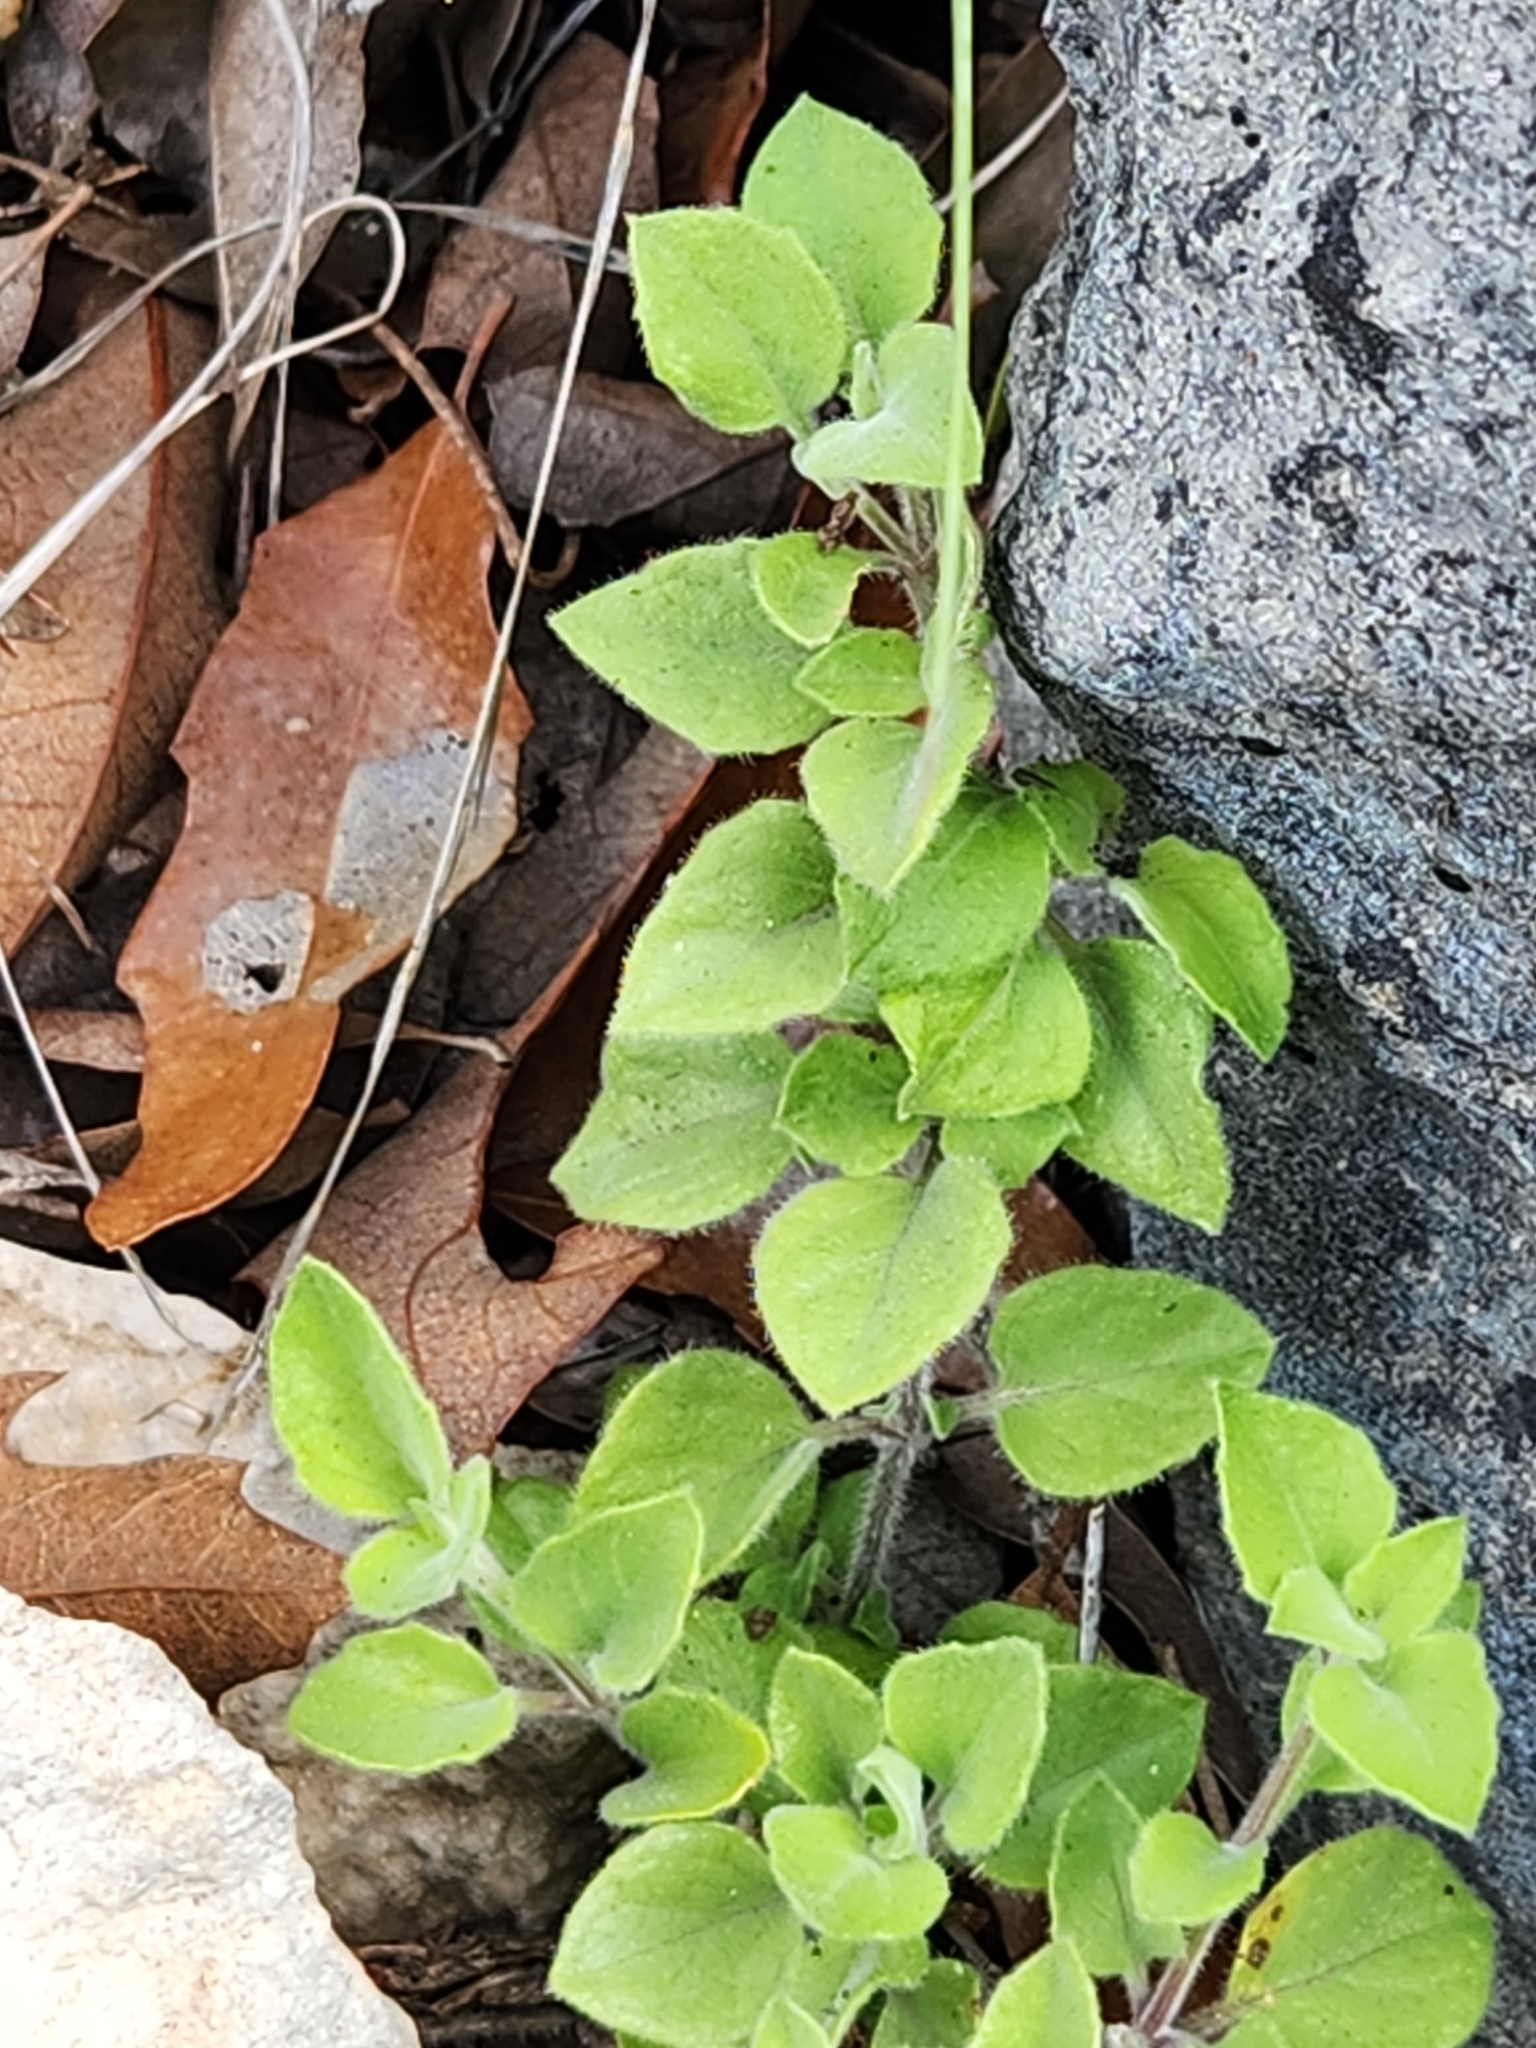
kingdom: Plantae
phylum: Tracheophyta
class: Magnoliopsida
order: Lamiales
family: Acanthaceae
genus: Carlowrightia
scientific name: Carlowrightia torreyana
